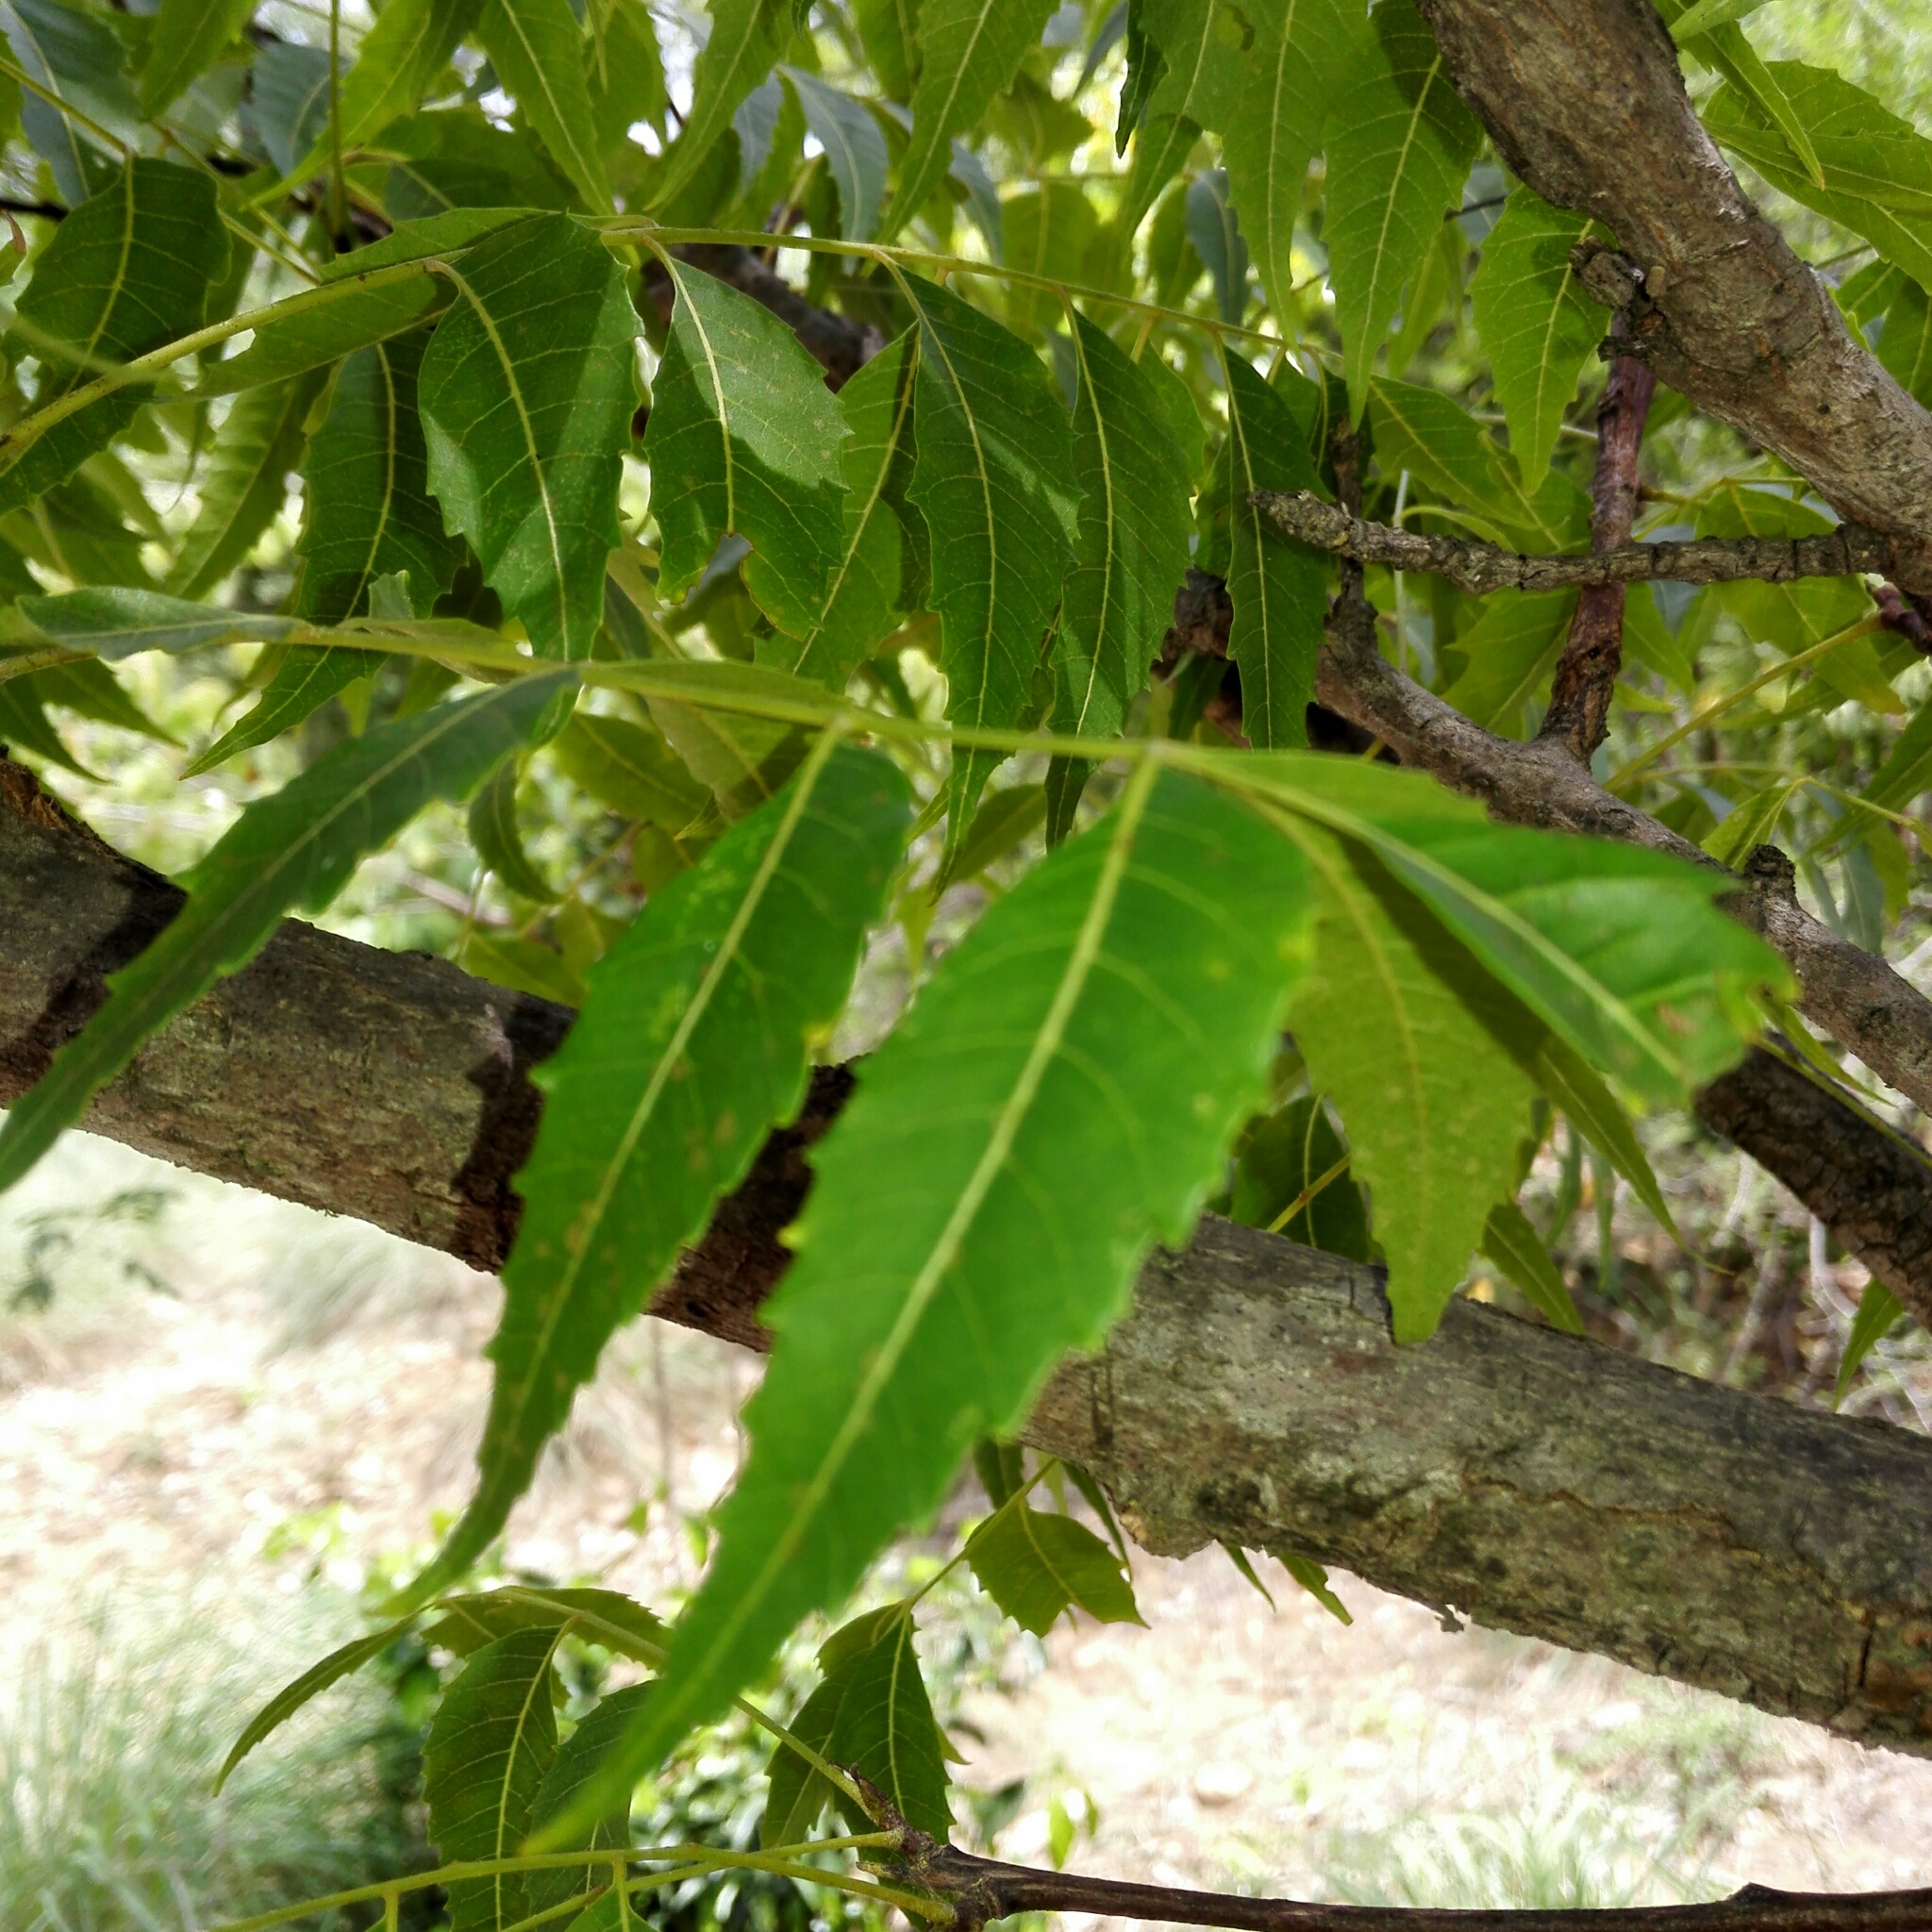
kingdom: Plantae
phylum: Tracheophyta
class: Magnoliopsida
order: Sapindales
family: Meliaceae
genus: Azadirachta
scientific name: Azadirachta indica
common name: Neem
